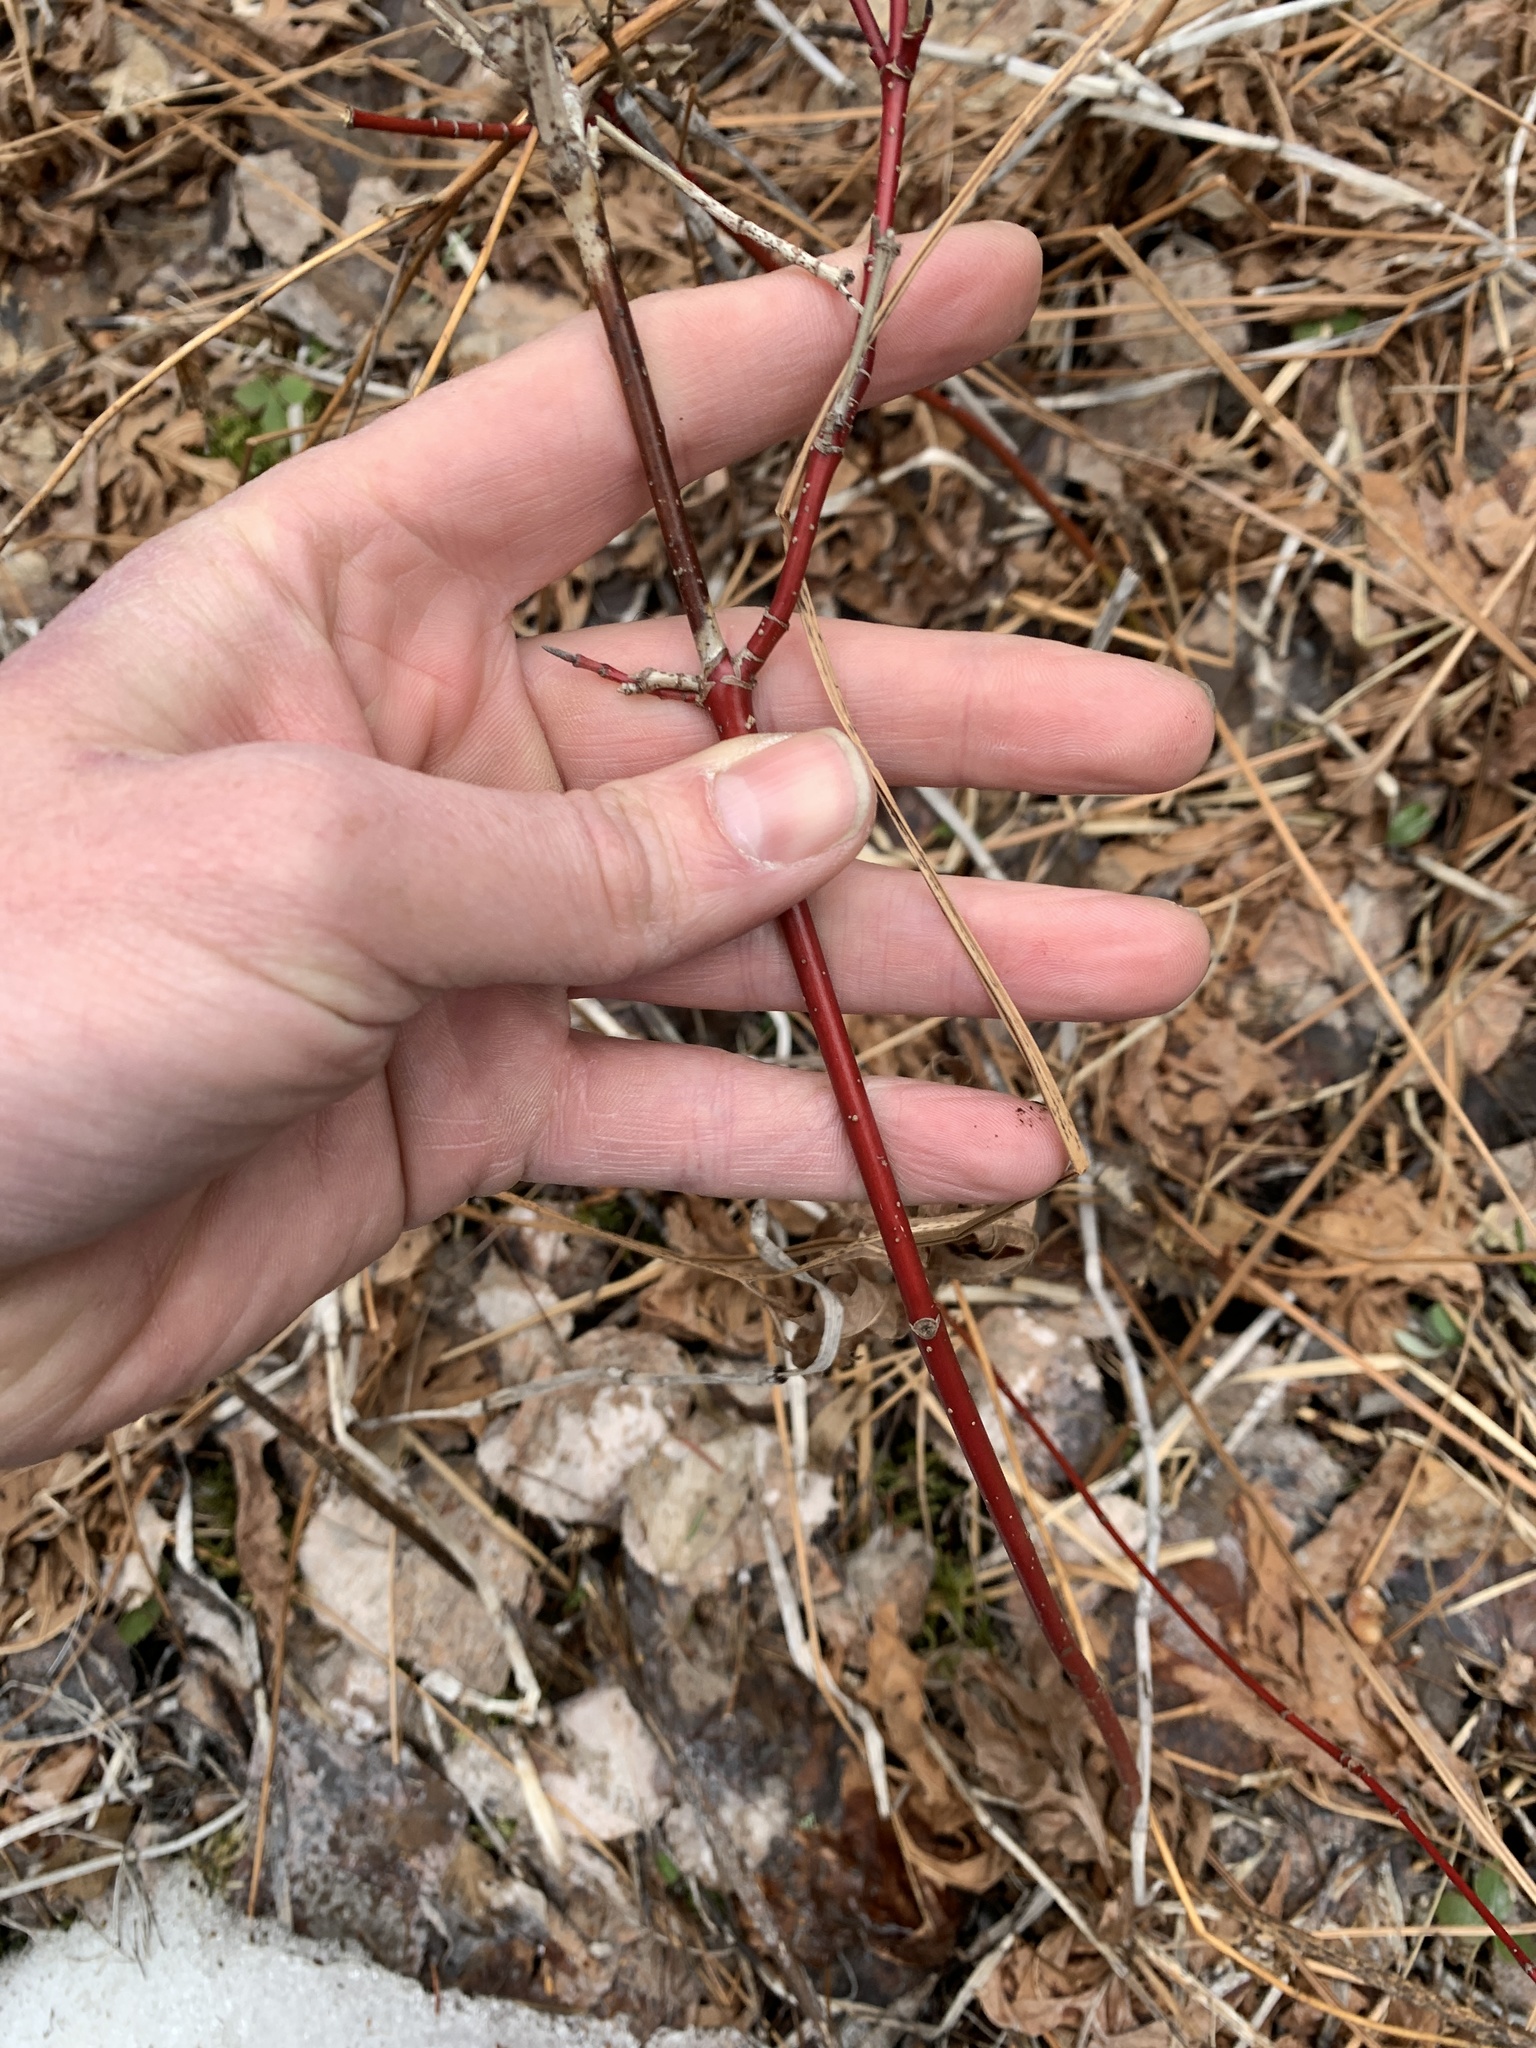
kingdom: Plantae
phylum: Tracheophyta
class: Magnoliopsida
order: Cornales
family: Cornaceae
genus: Cornus
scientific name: Cornus sericea
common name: Red-osier dogwood
